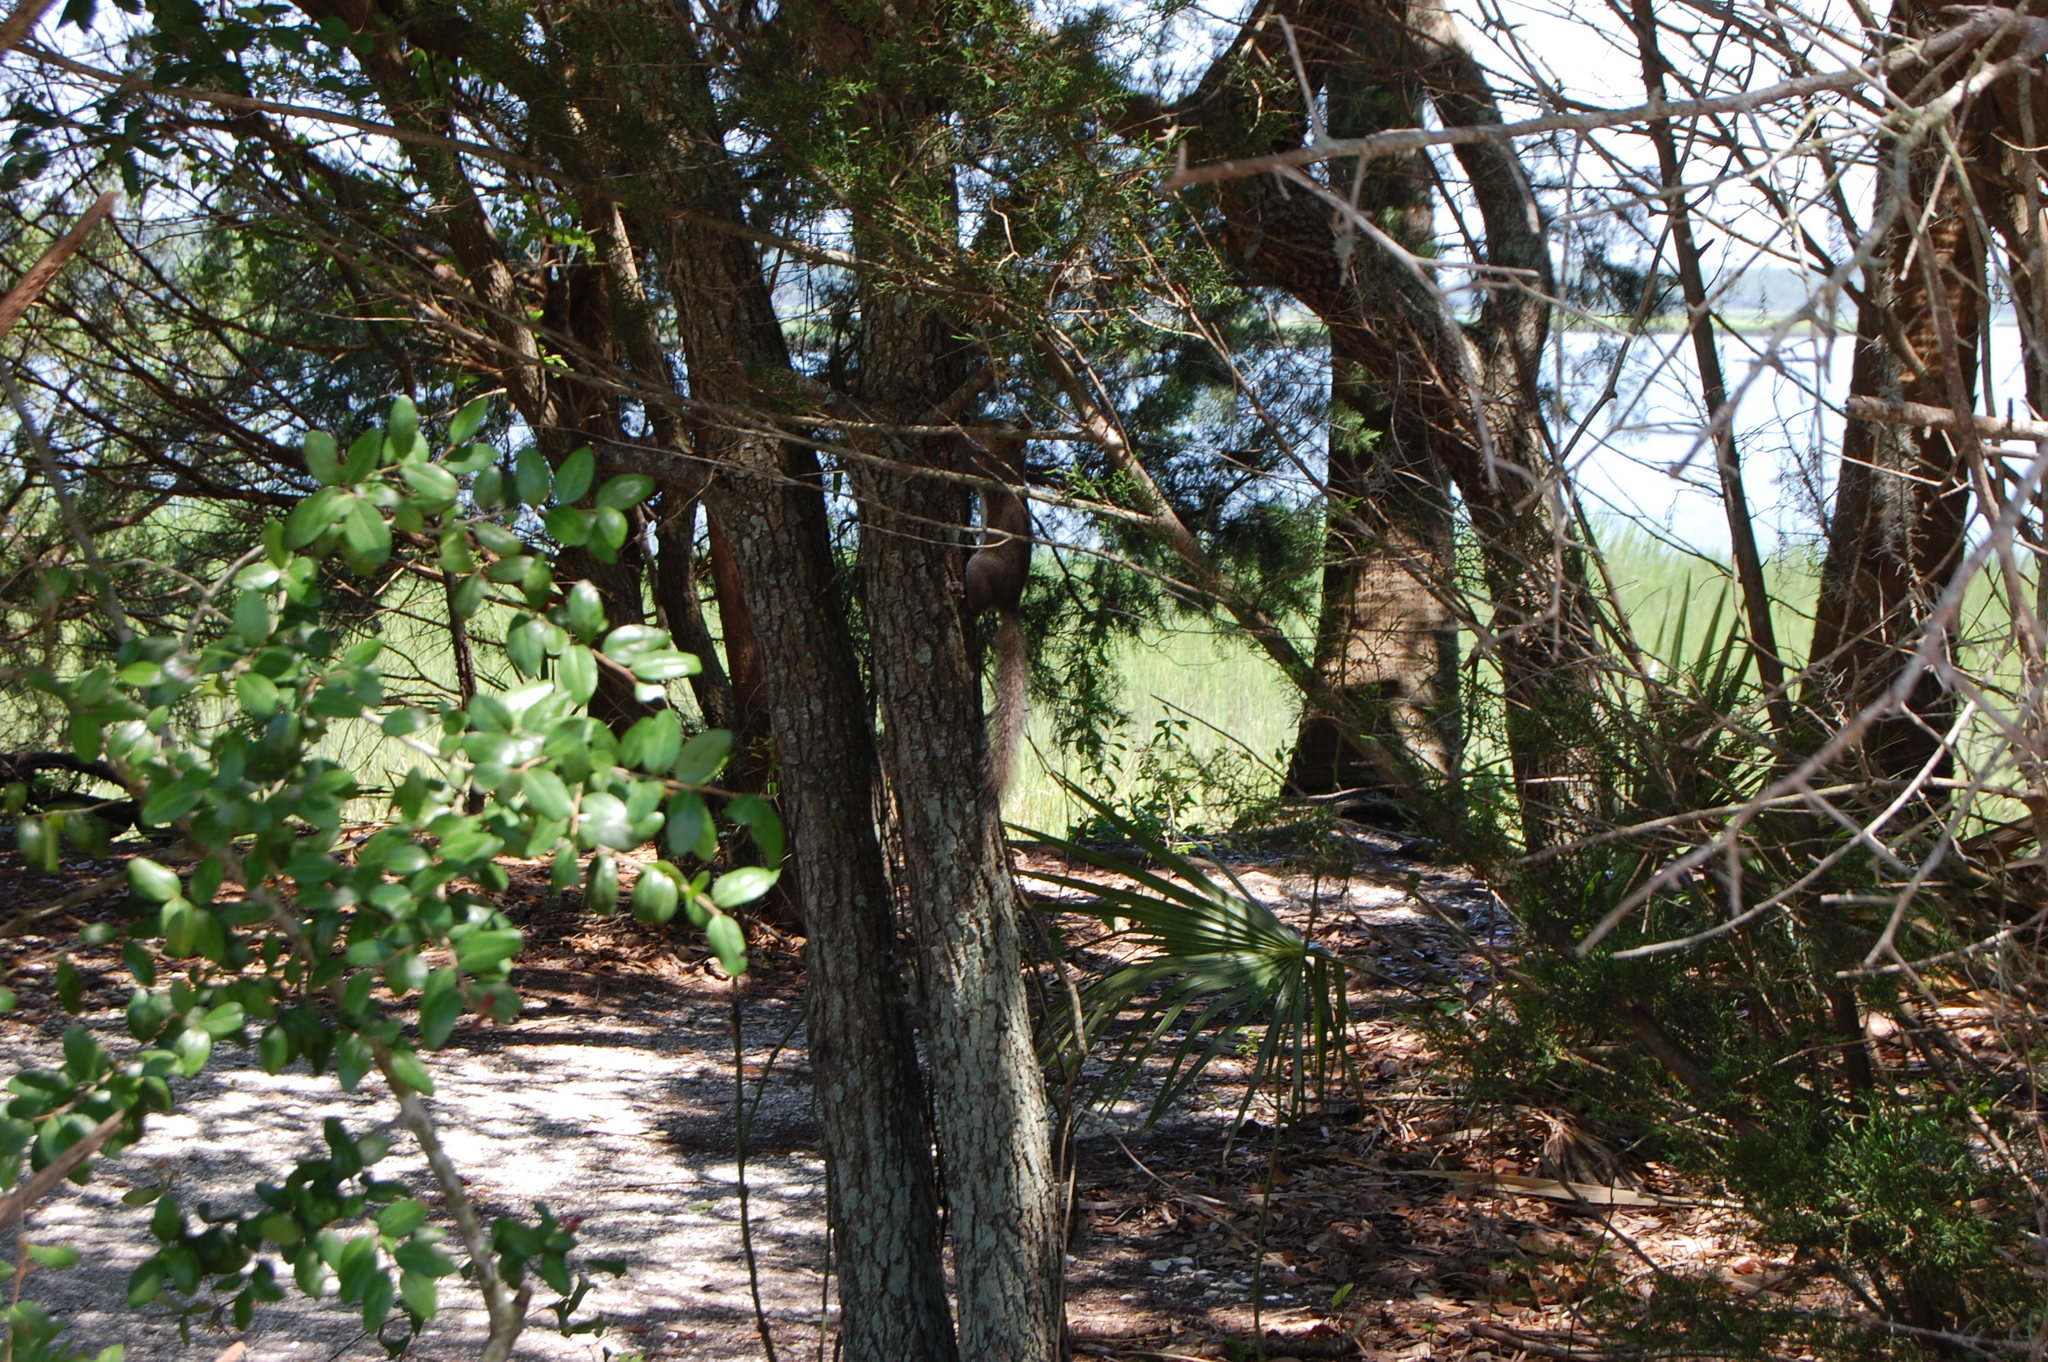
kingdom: Animalia
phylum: Chordata
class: Mammalia
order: Rodentia
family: Sciuridae
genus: Sciurus
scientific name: Sciurus carolinensis
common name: Eastern gray squirrel
